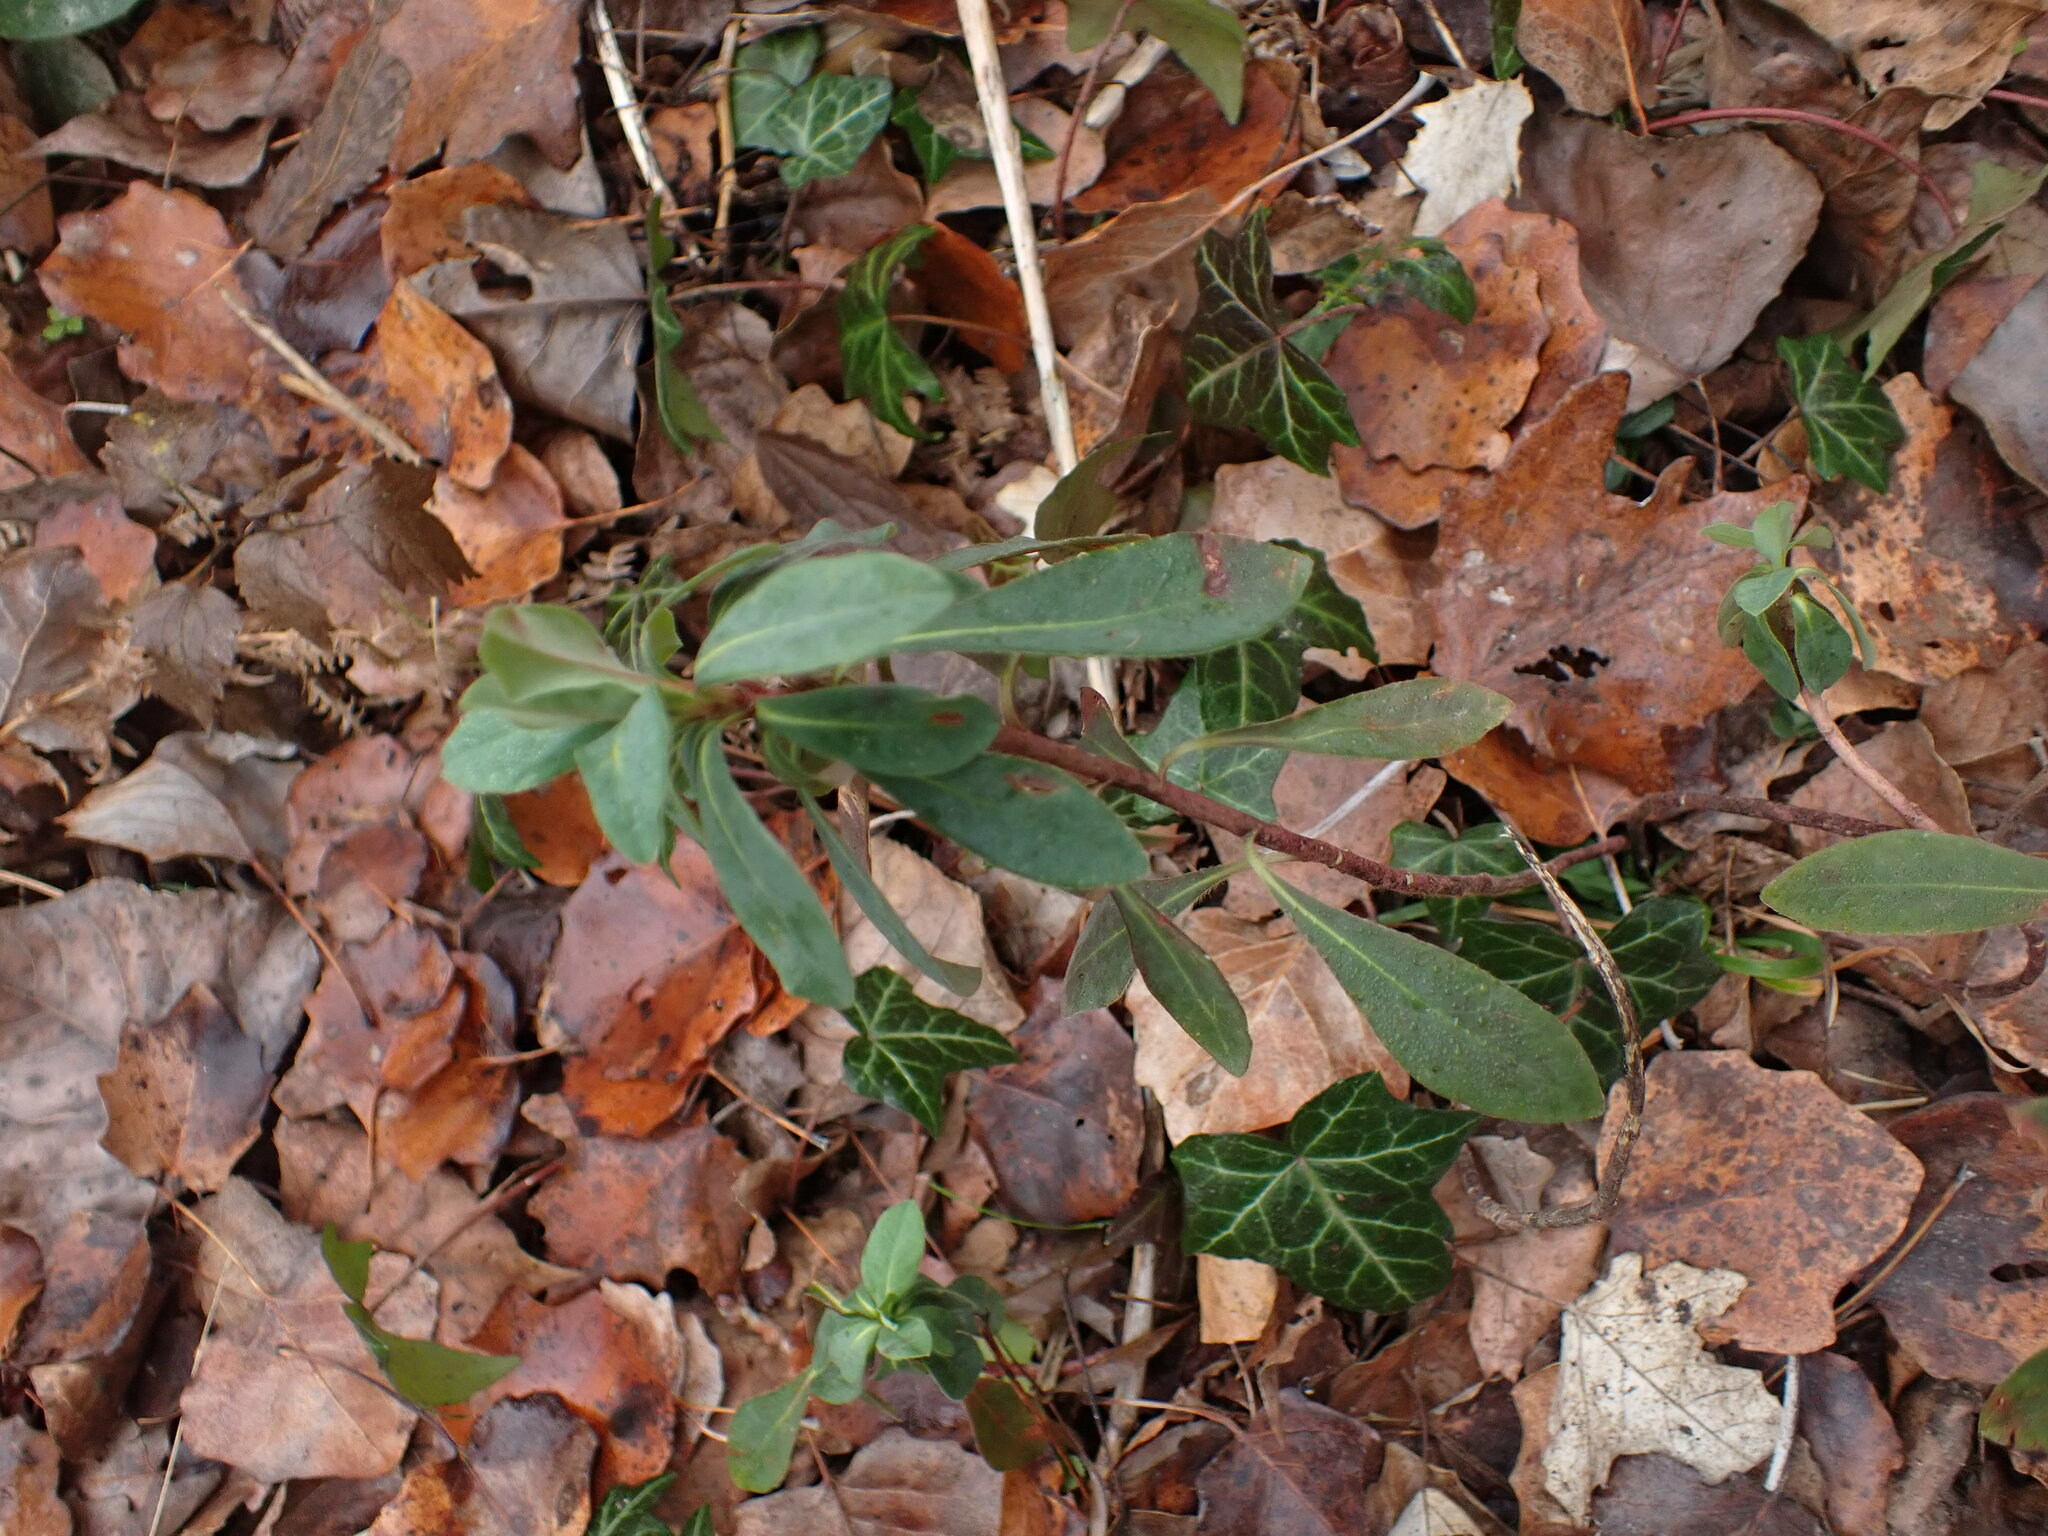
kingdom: Plantae
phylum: Tracheophyta
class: Magnoliopsida
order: Malpighiales
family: Euphorbiaceae
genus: Euphorbia
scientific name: Euphorbia amygdaloides
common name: Wood spurge
